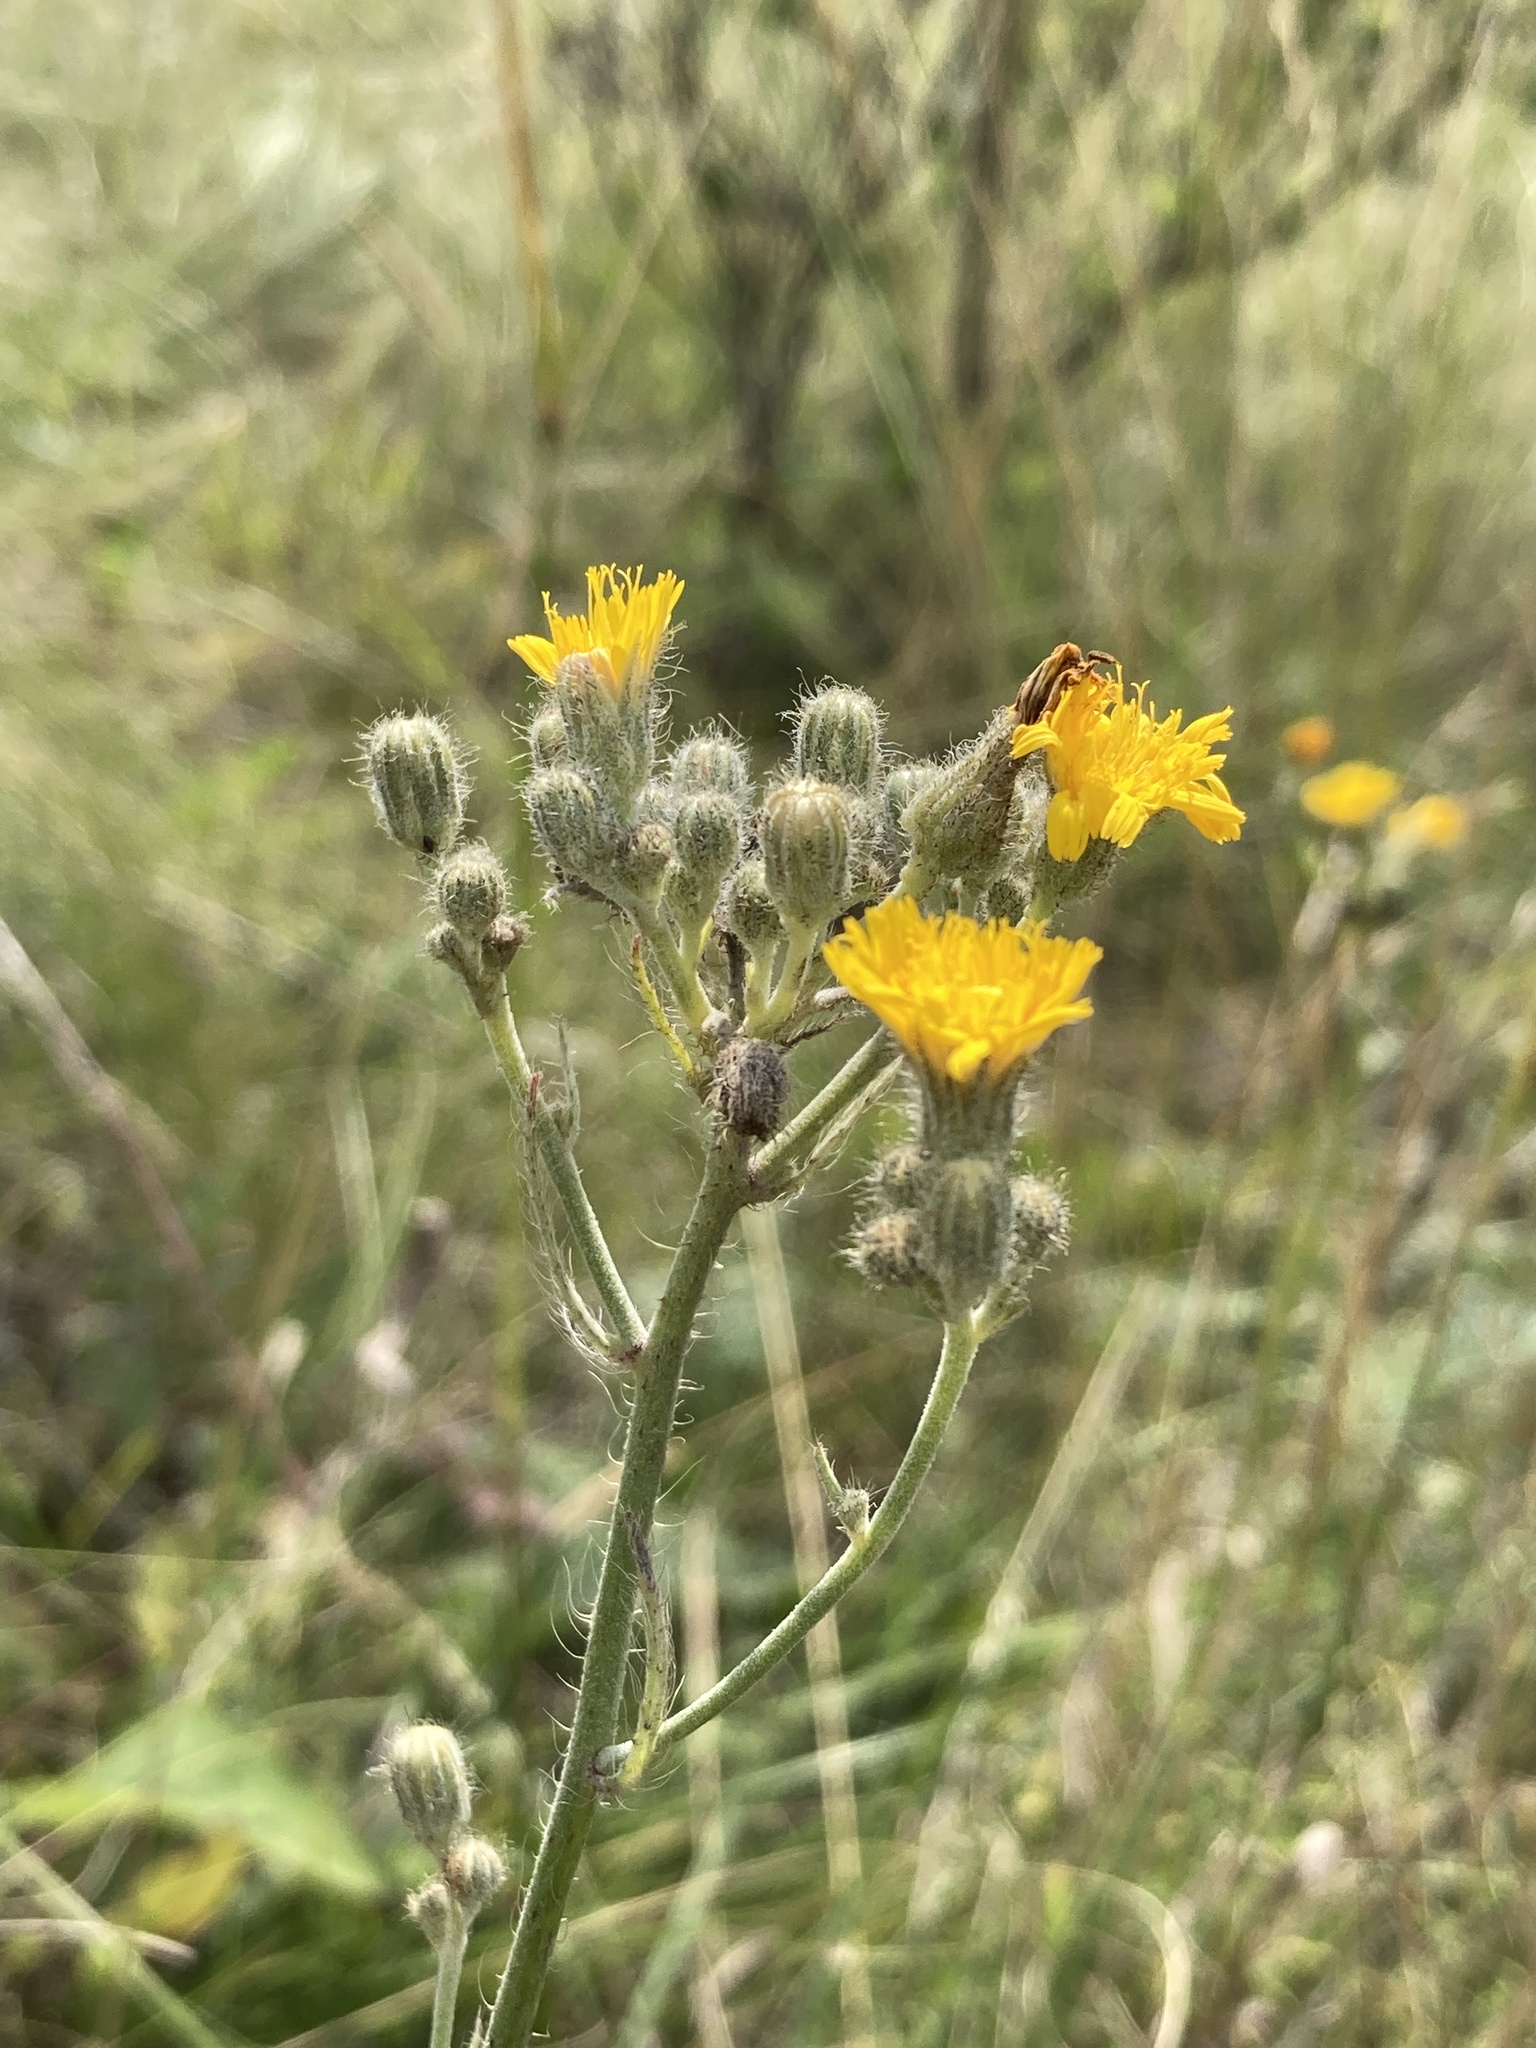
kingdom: Plantae
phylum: Tracheophyta
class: Magnoliopsida
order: Asterales
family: Asteraceae
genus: Pilosella
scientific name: Pilosella echioides
